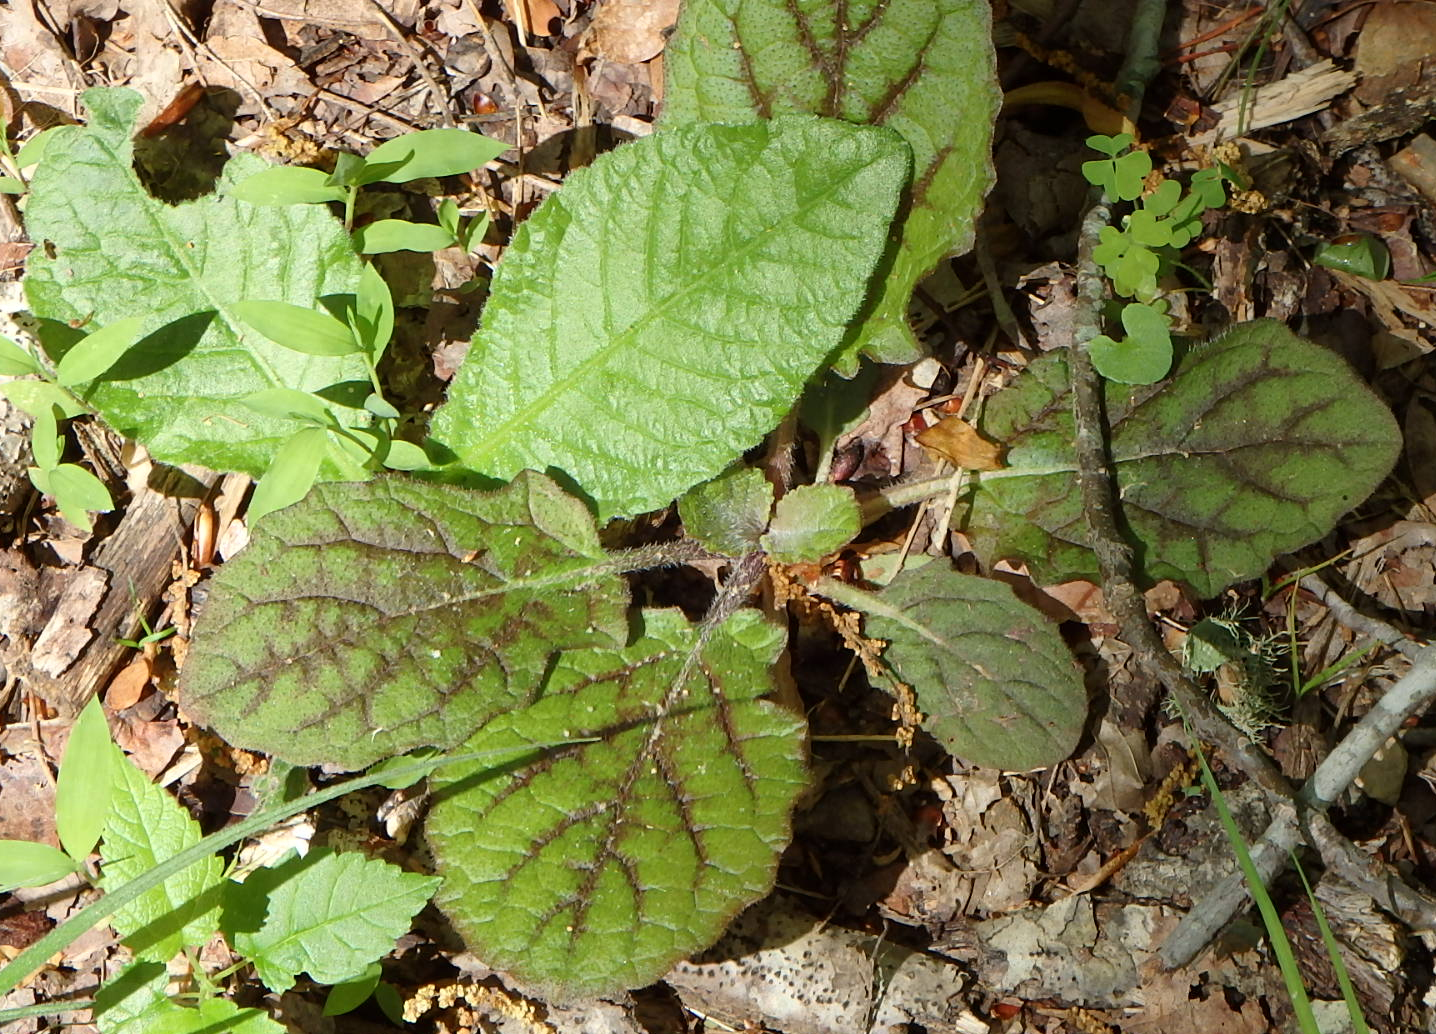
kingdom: Plantae
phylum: Tracheophyta
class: Magnoliopsida
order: Lamiales
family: Lamiaceae
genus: Salvia
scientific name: Salvia lyrata
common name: Cancerweed
